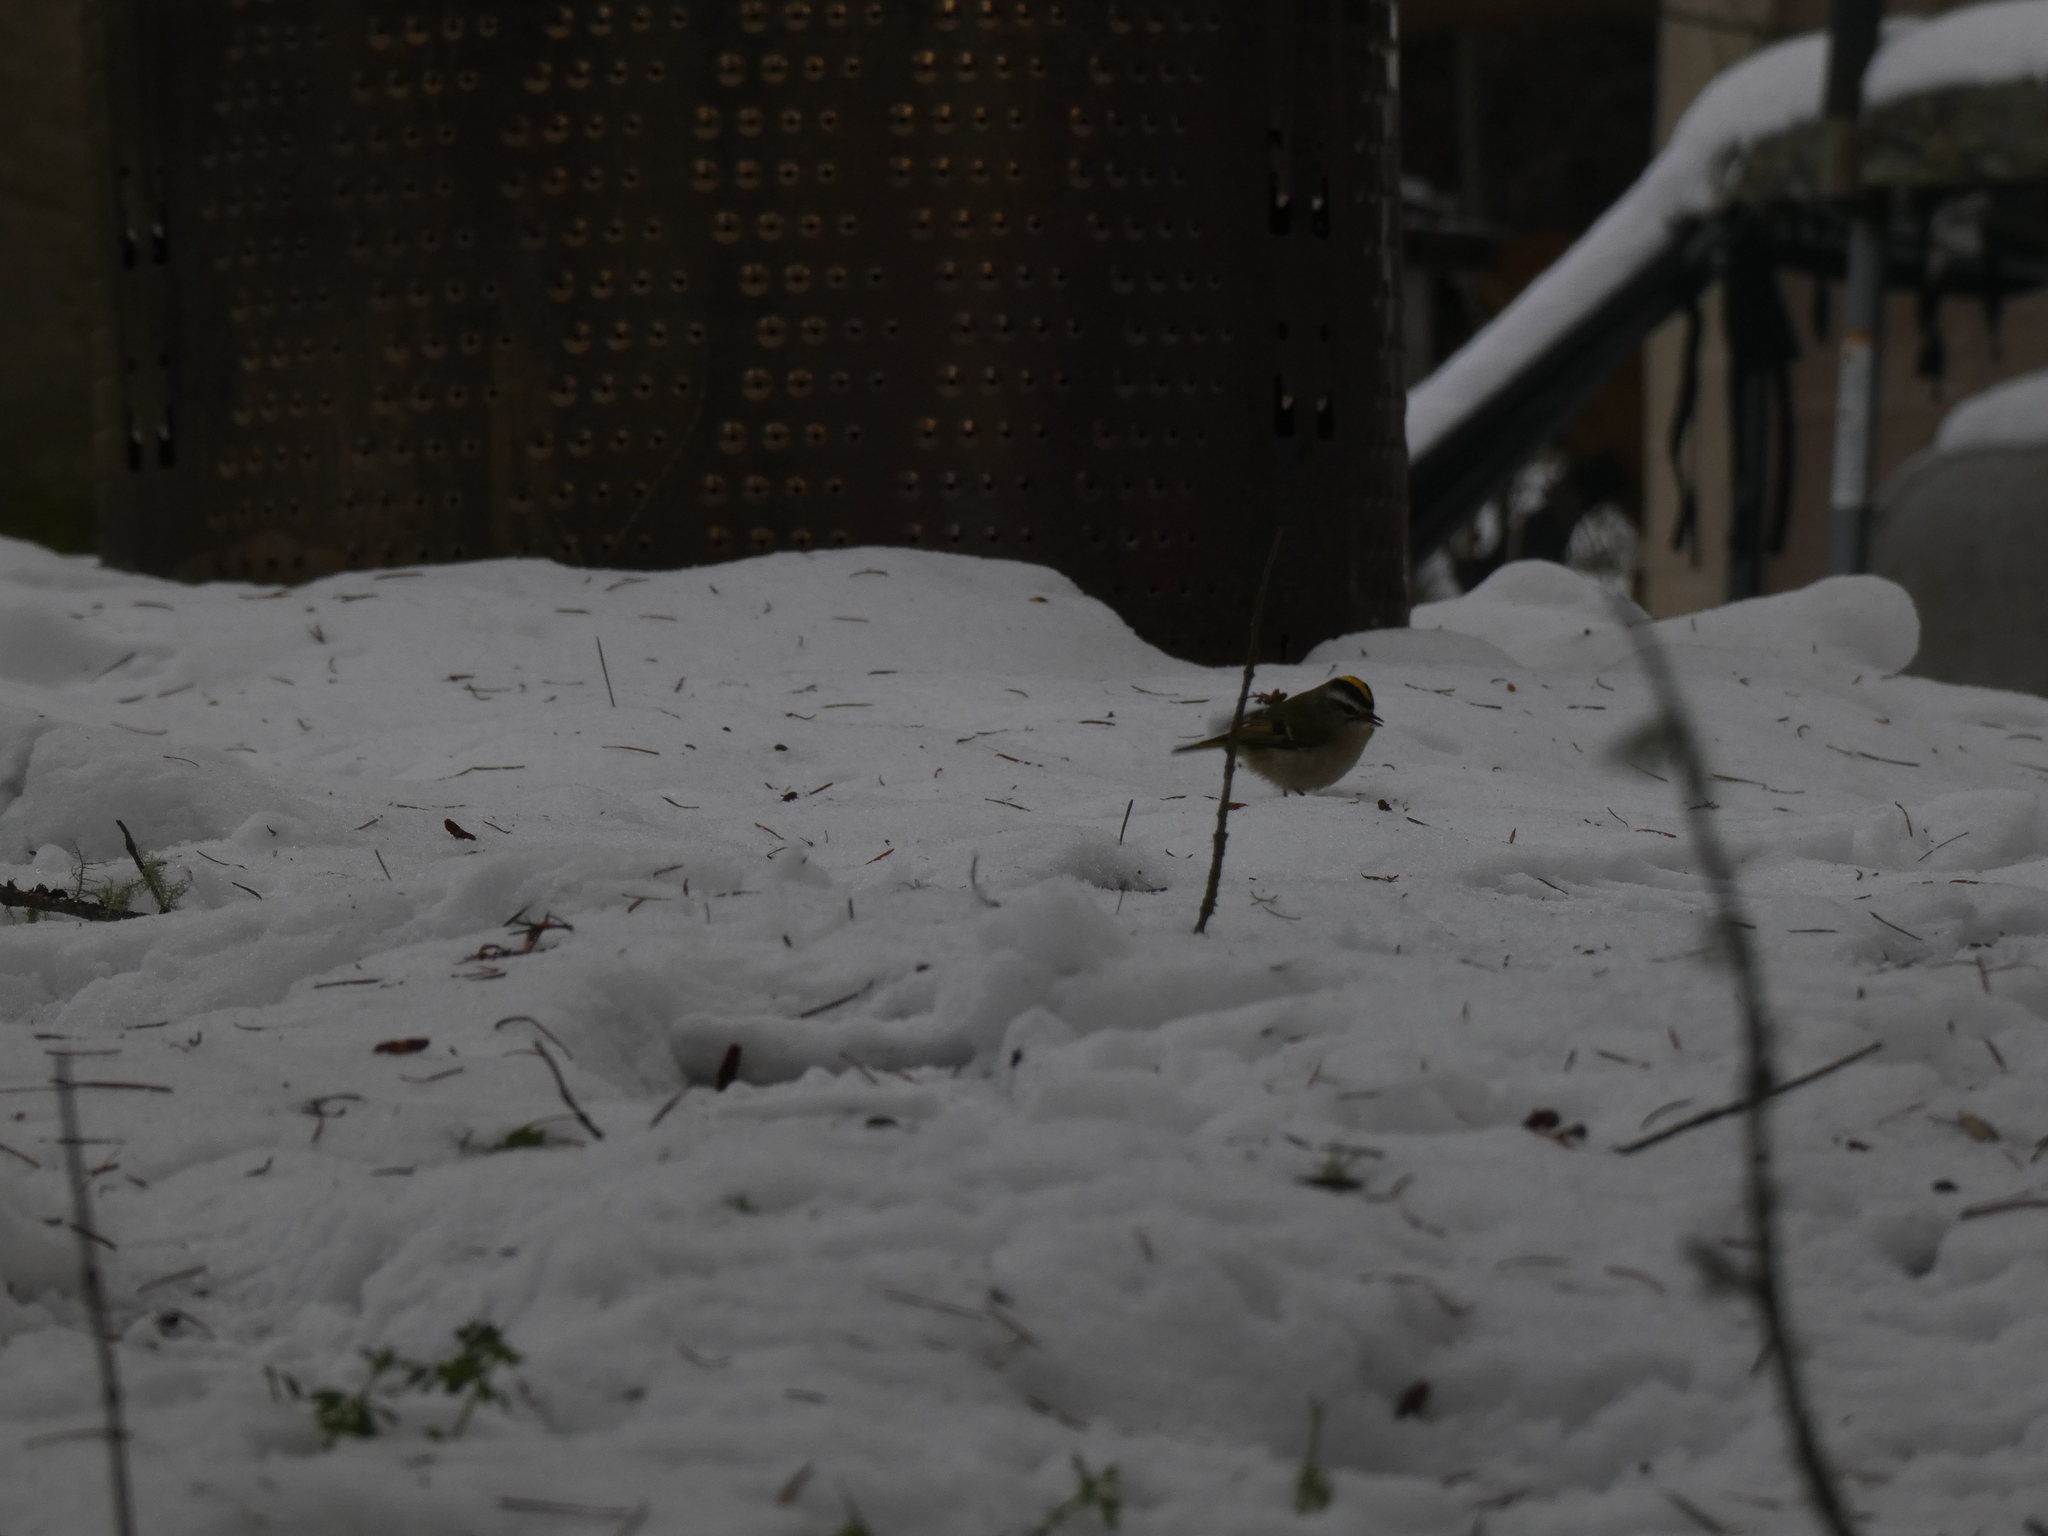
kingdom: Animalia
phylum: Chordata
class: Aves
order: Passeriformes
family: Regulidae
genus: Regulus
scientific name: Regulus satrapa
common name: Golden-crowned kinglet
